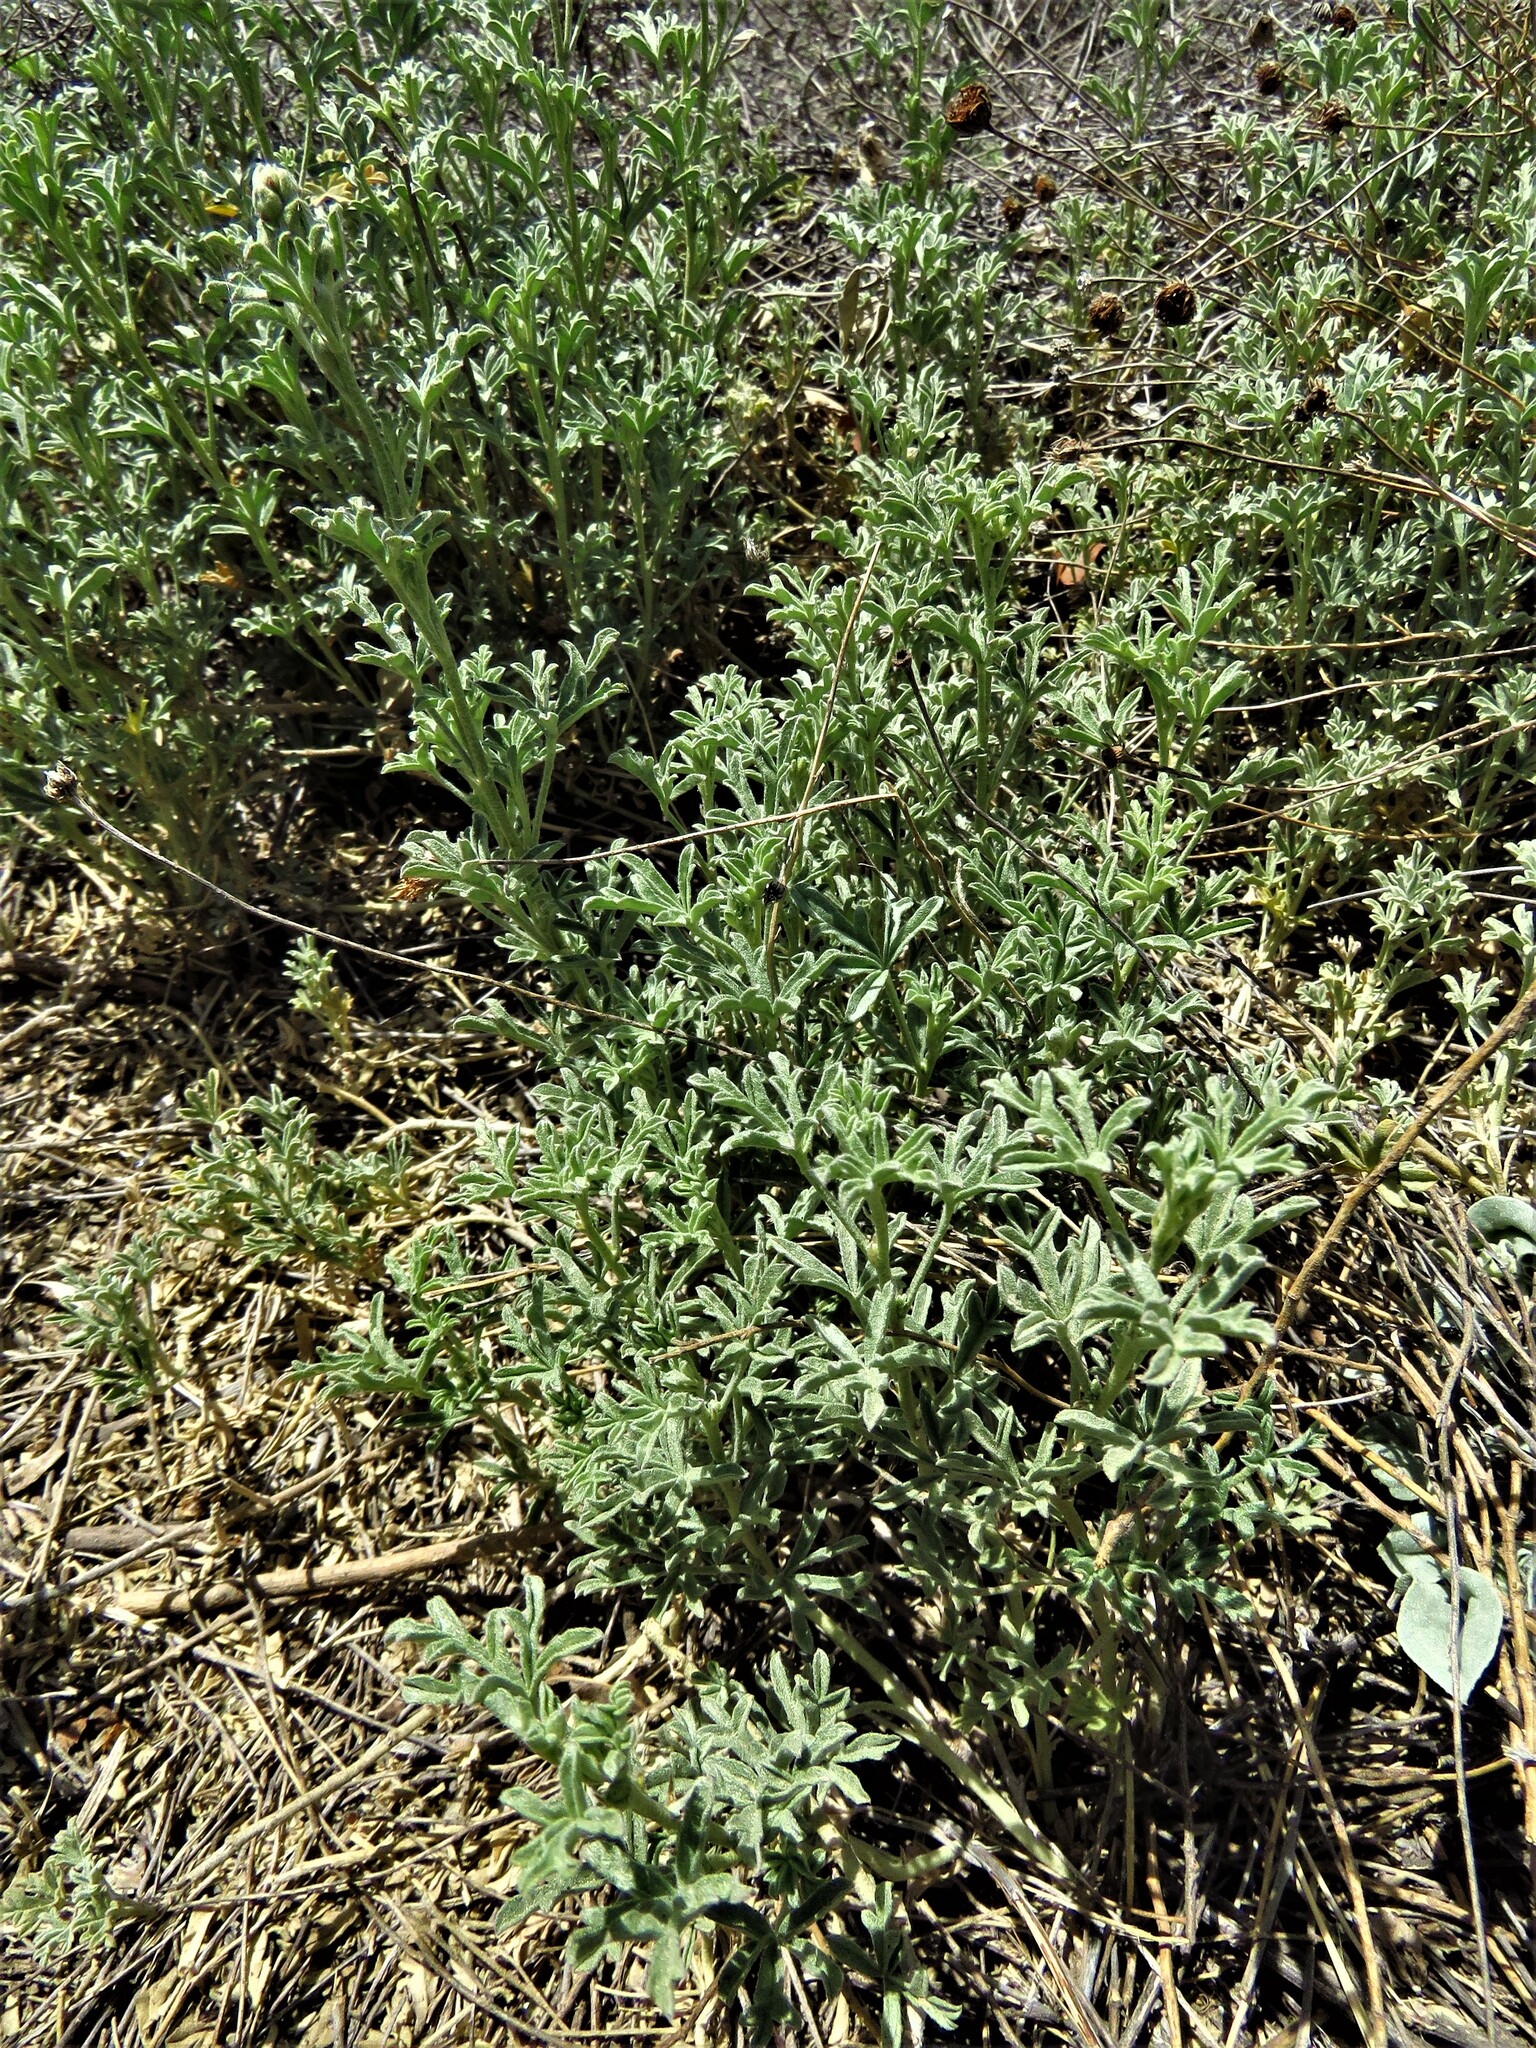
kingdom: Plantae
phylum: Tracheophyta
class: Magnoliopsida
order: Malvales
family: Malvaceae
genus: Sphaeralcea
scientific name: Sphaeralcea coccinea
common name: Moss-rose
